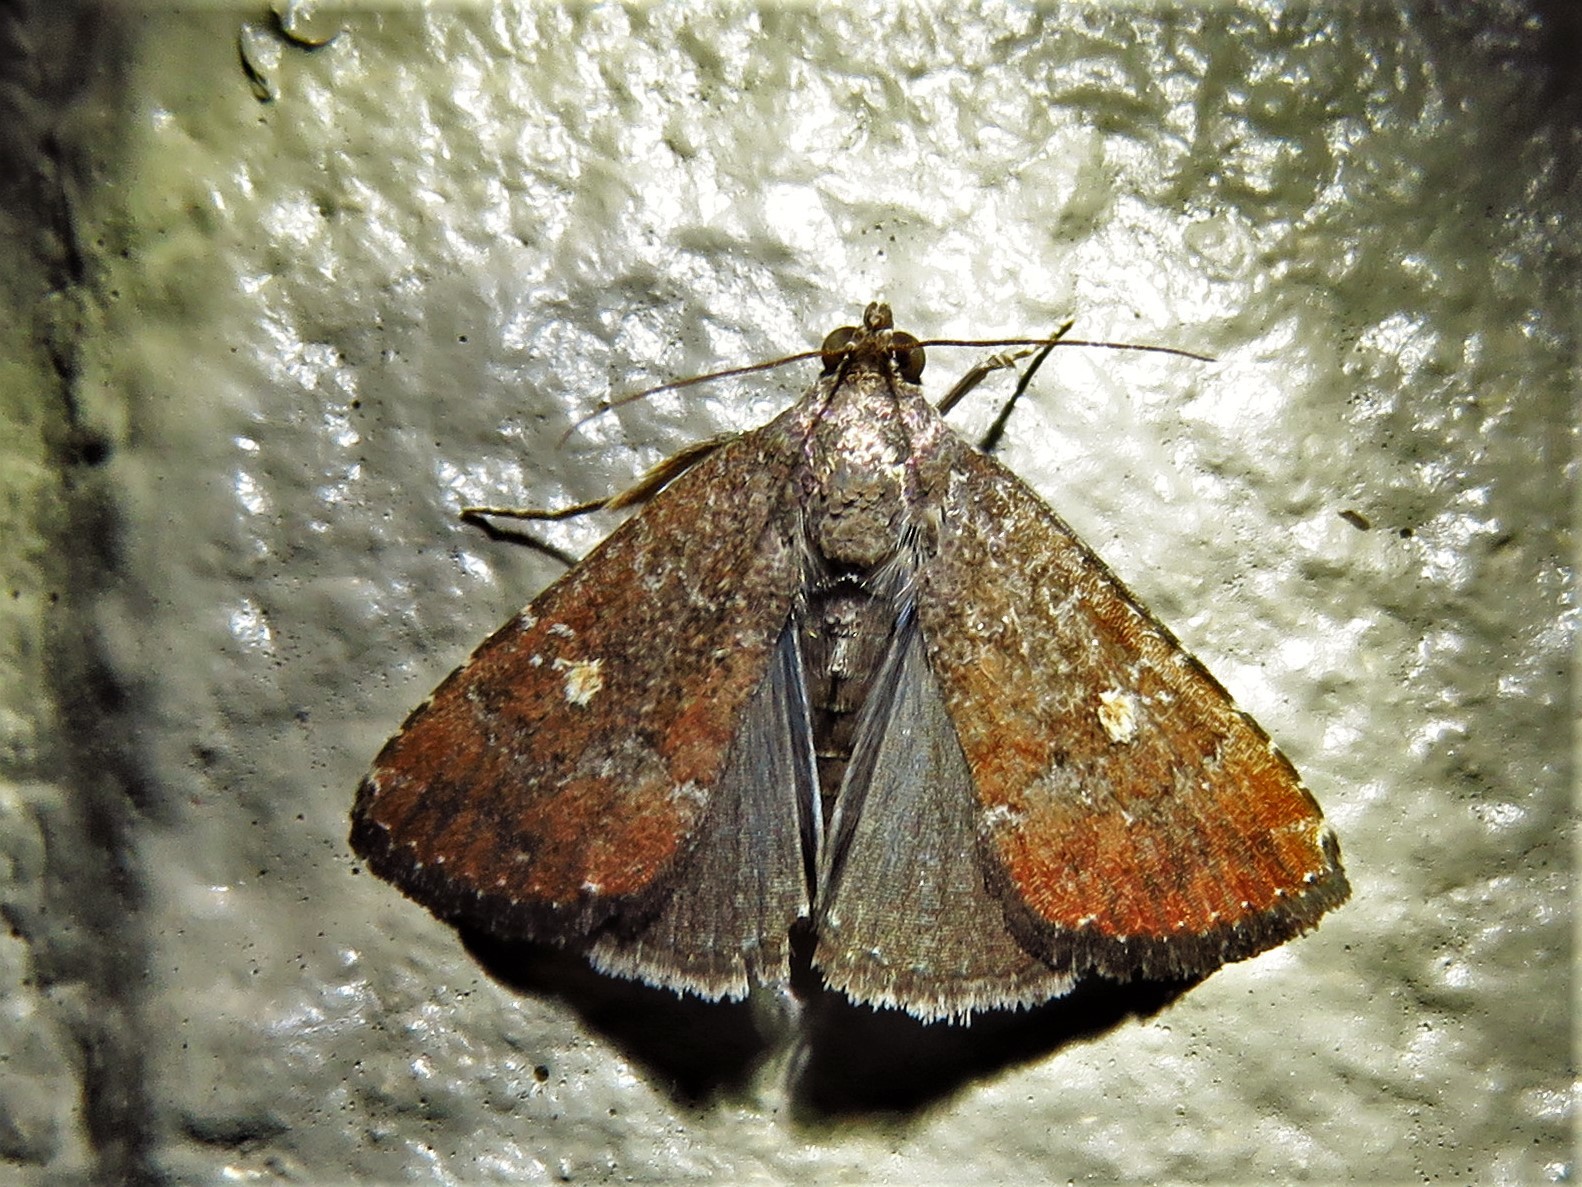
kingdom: Animalia
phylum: Arthropoda
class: Insecta
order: Lepidoptera
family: Noctuidae
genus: Amyna
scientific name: Amyna stricta
